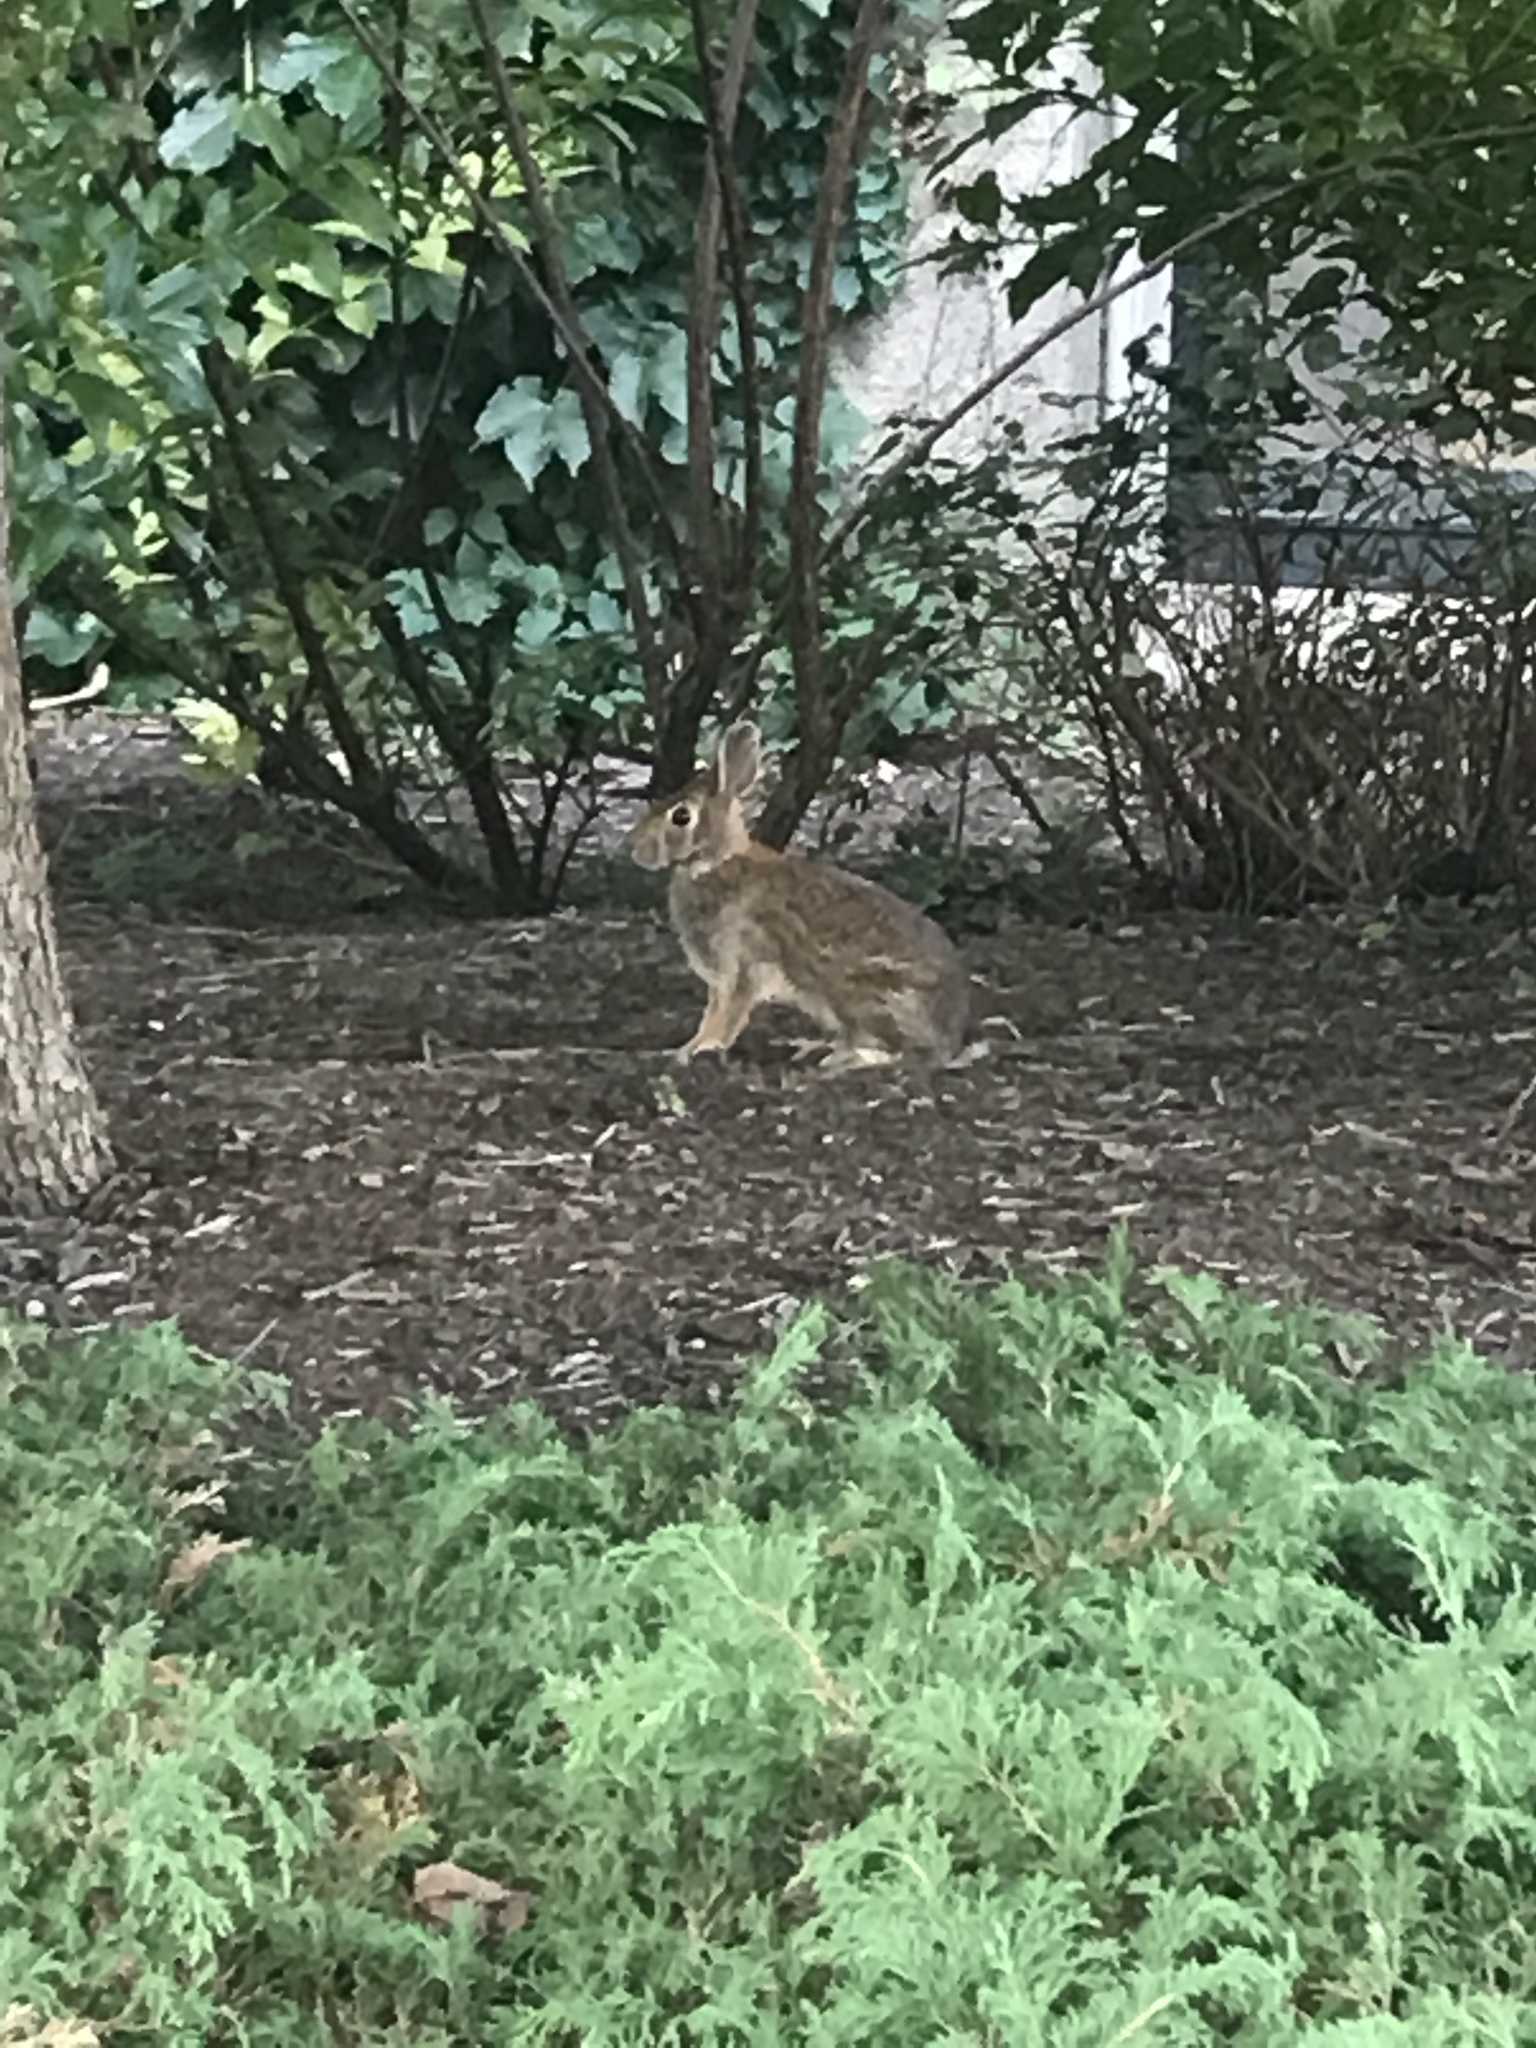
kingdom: Animalia
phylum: Chordata
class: Mammalia
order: Lagomorpha
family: Leporidae
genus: Sylvilagus
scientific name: Sylvilagus floridanus
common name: Eastern cottontail
